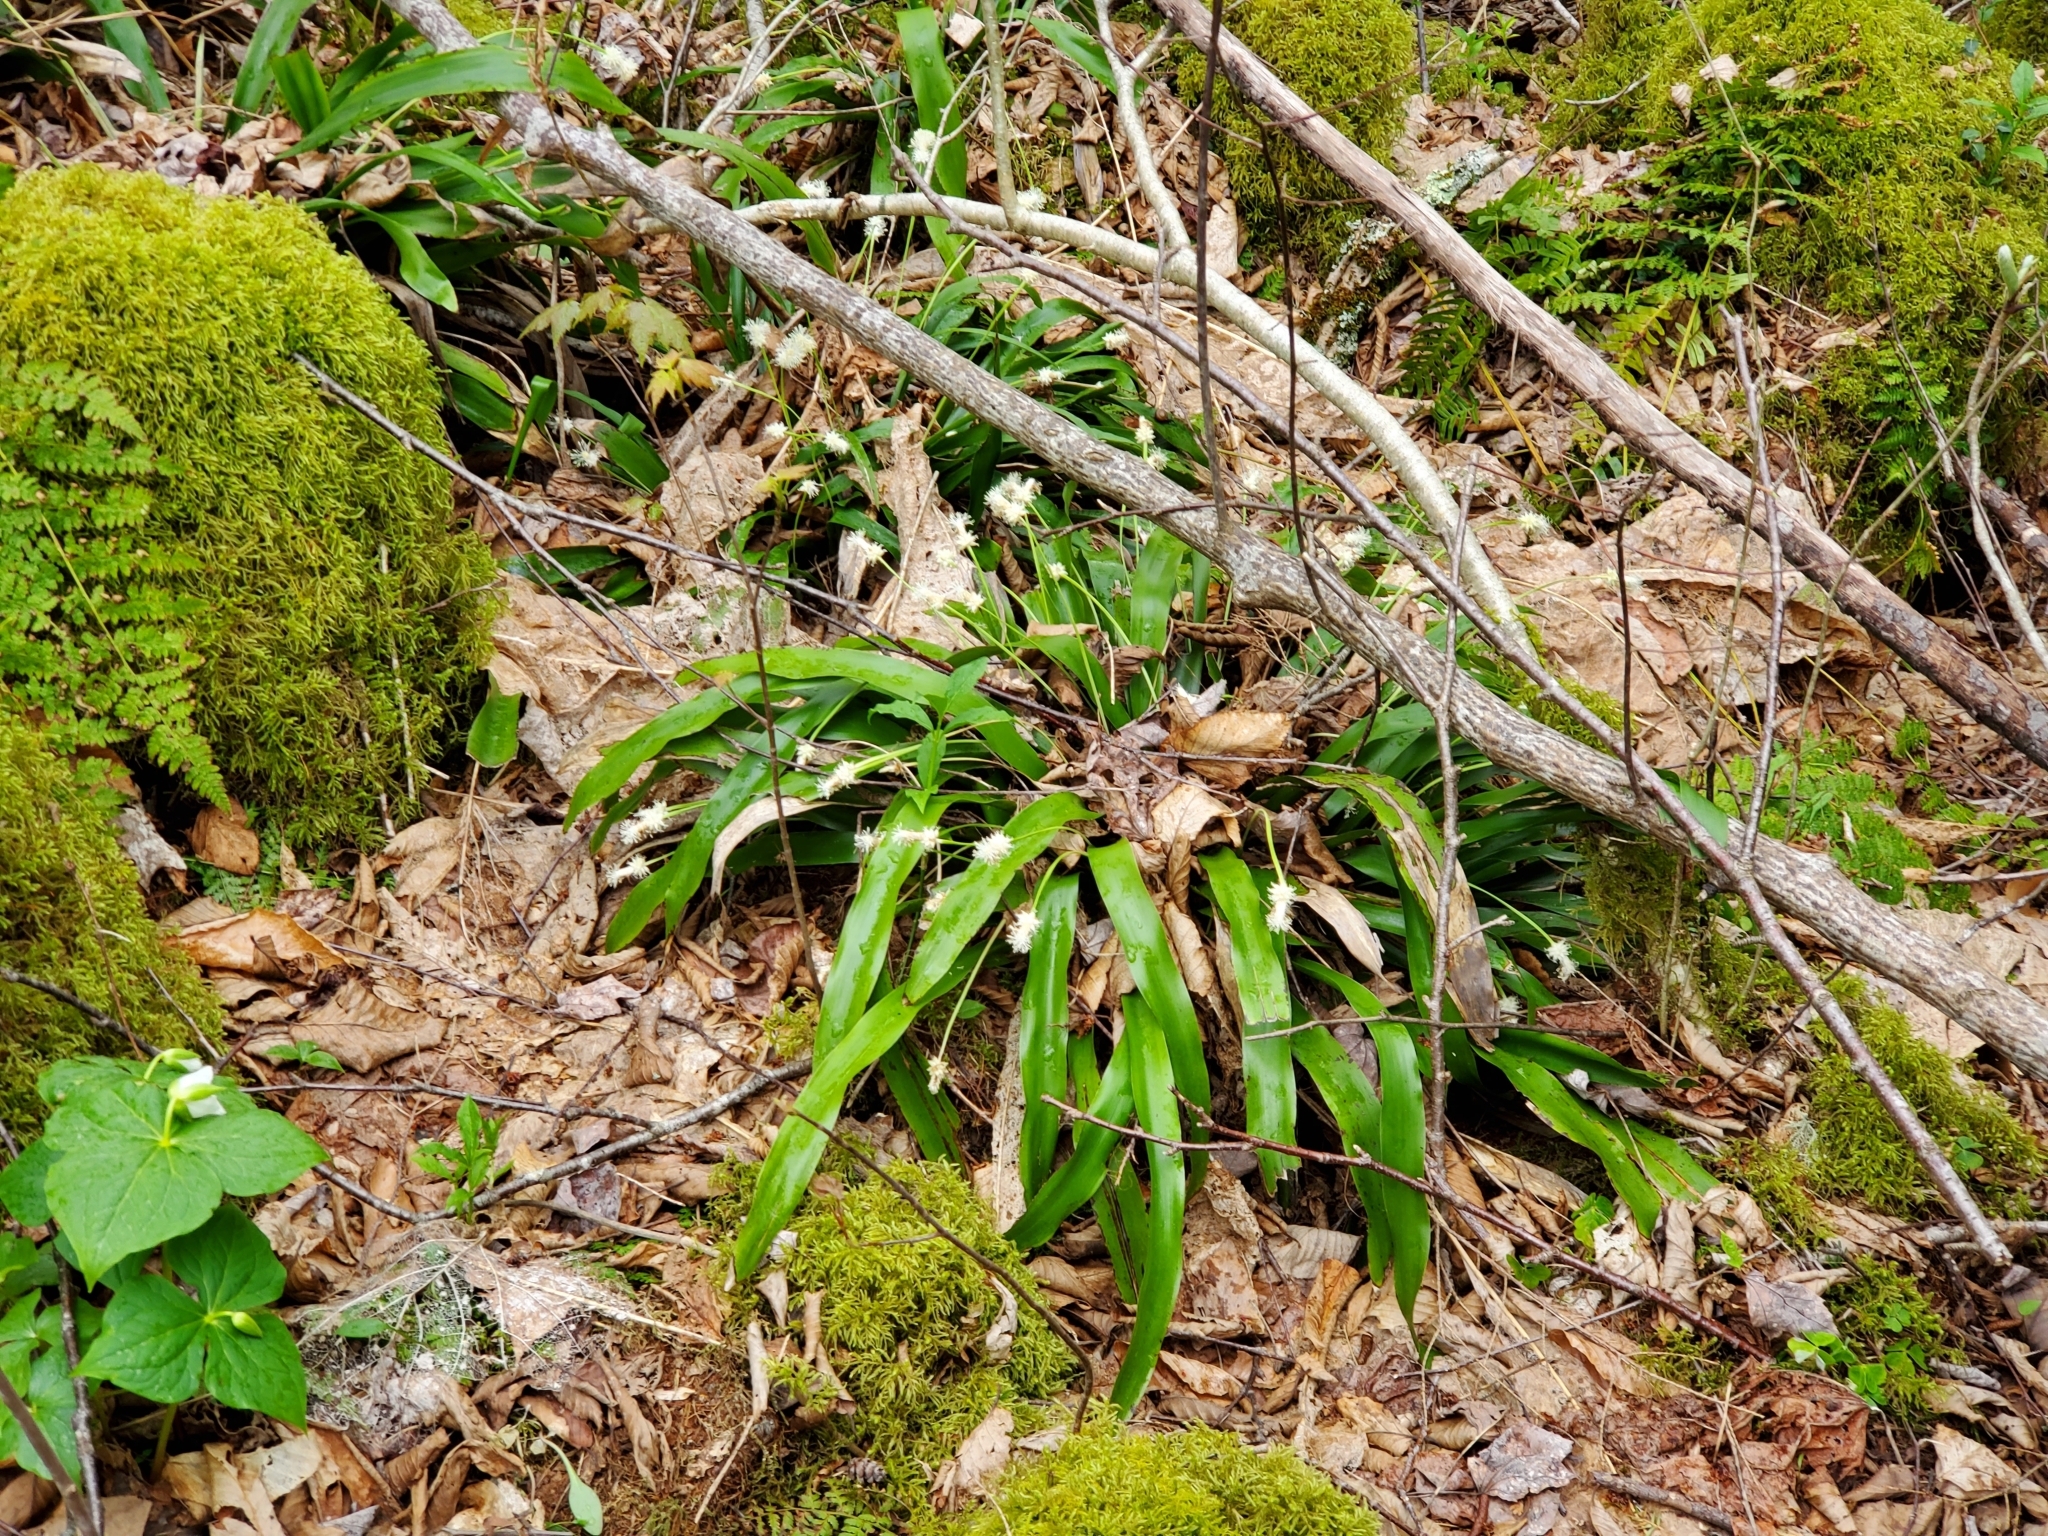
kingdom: Plantae
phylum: Tracheophyta
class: Liliopsida
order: Poales
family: Cyperaceae
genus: Carex
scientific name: Carex fraseriana
